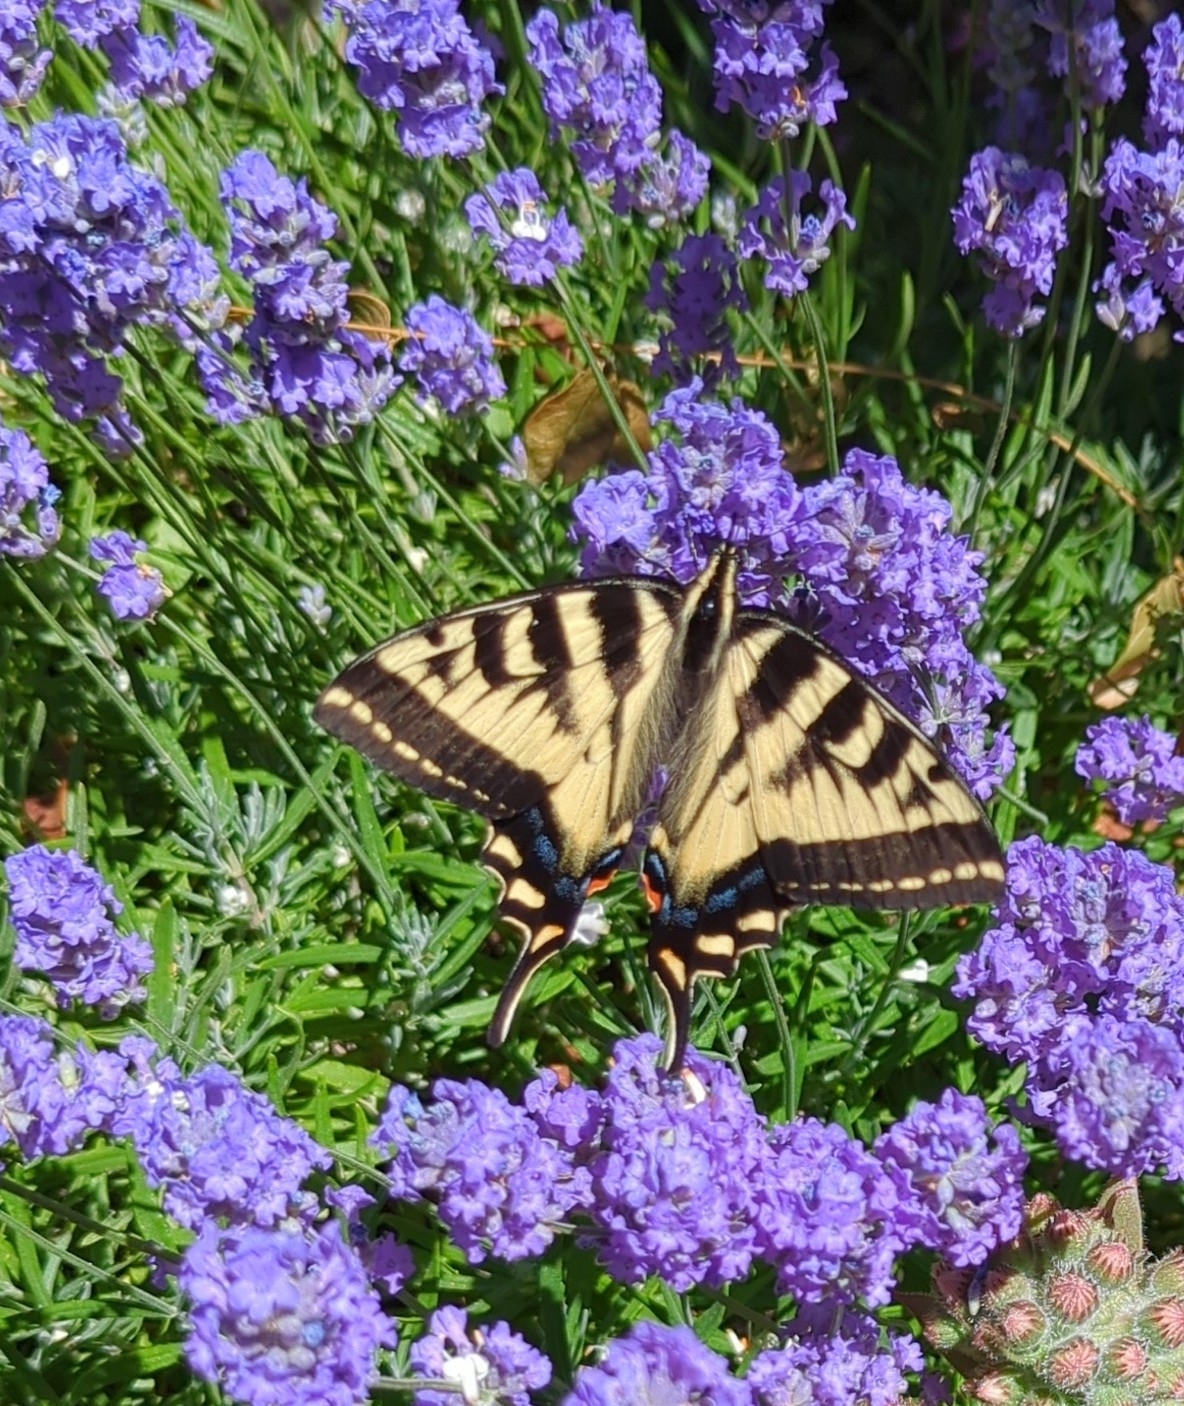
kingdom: Animalia
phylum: Arthropoda
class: Insecta
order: Lepidoptera
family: Papilionidae
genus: Papilio
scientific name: Papilio rutulus
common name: Western tiger swallowtail
